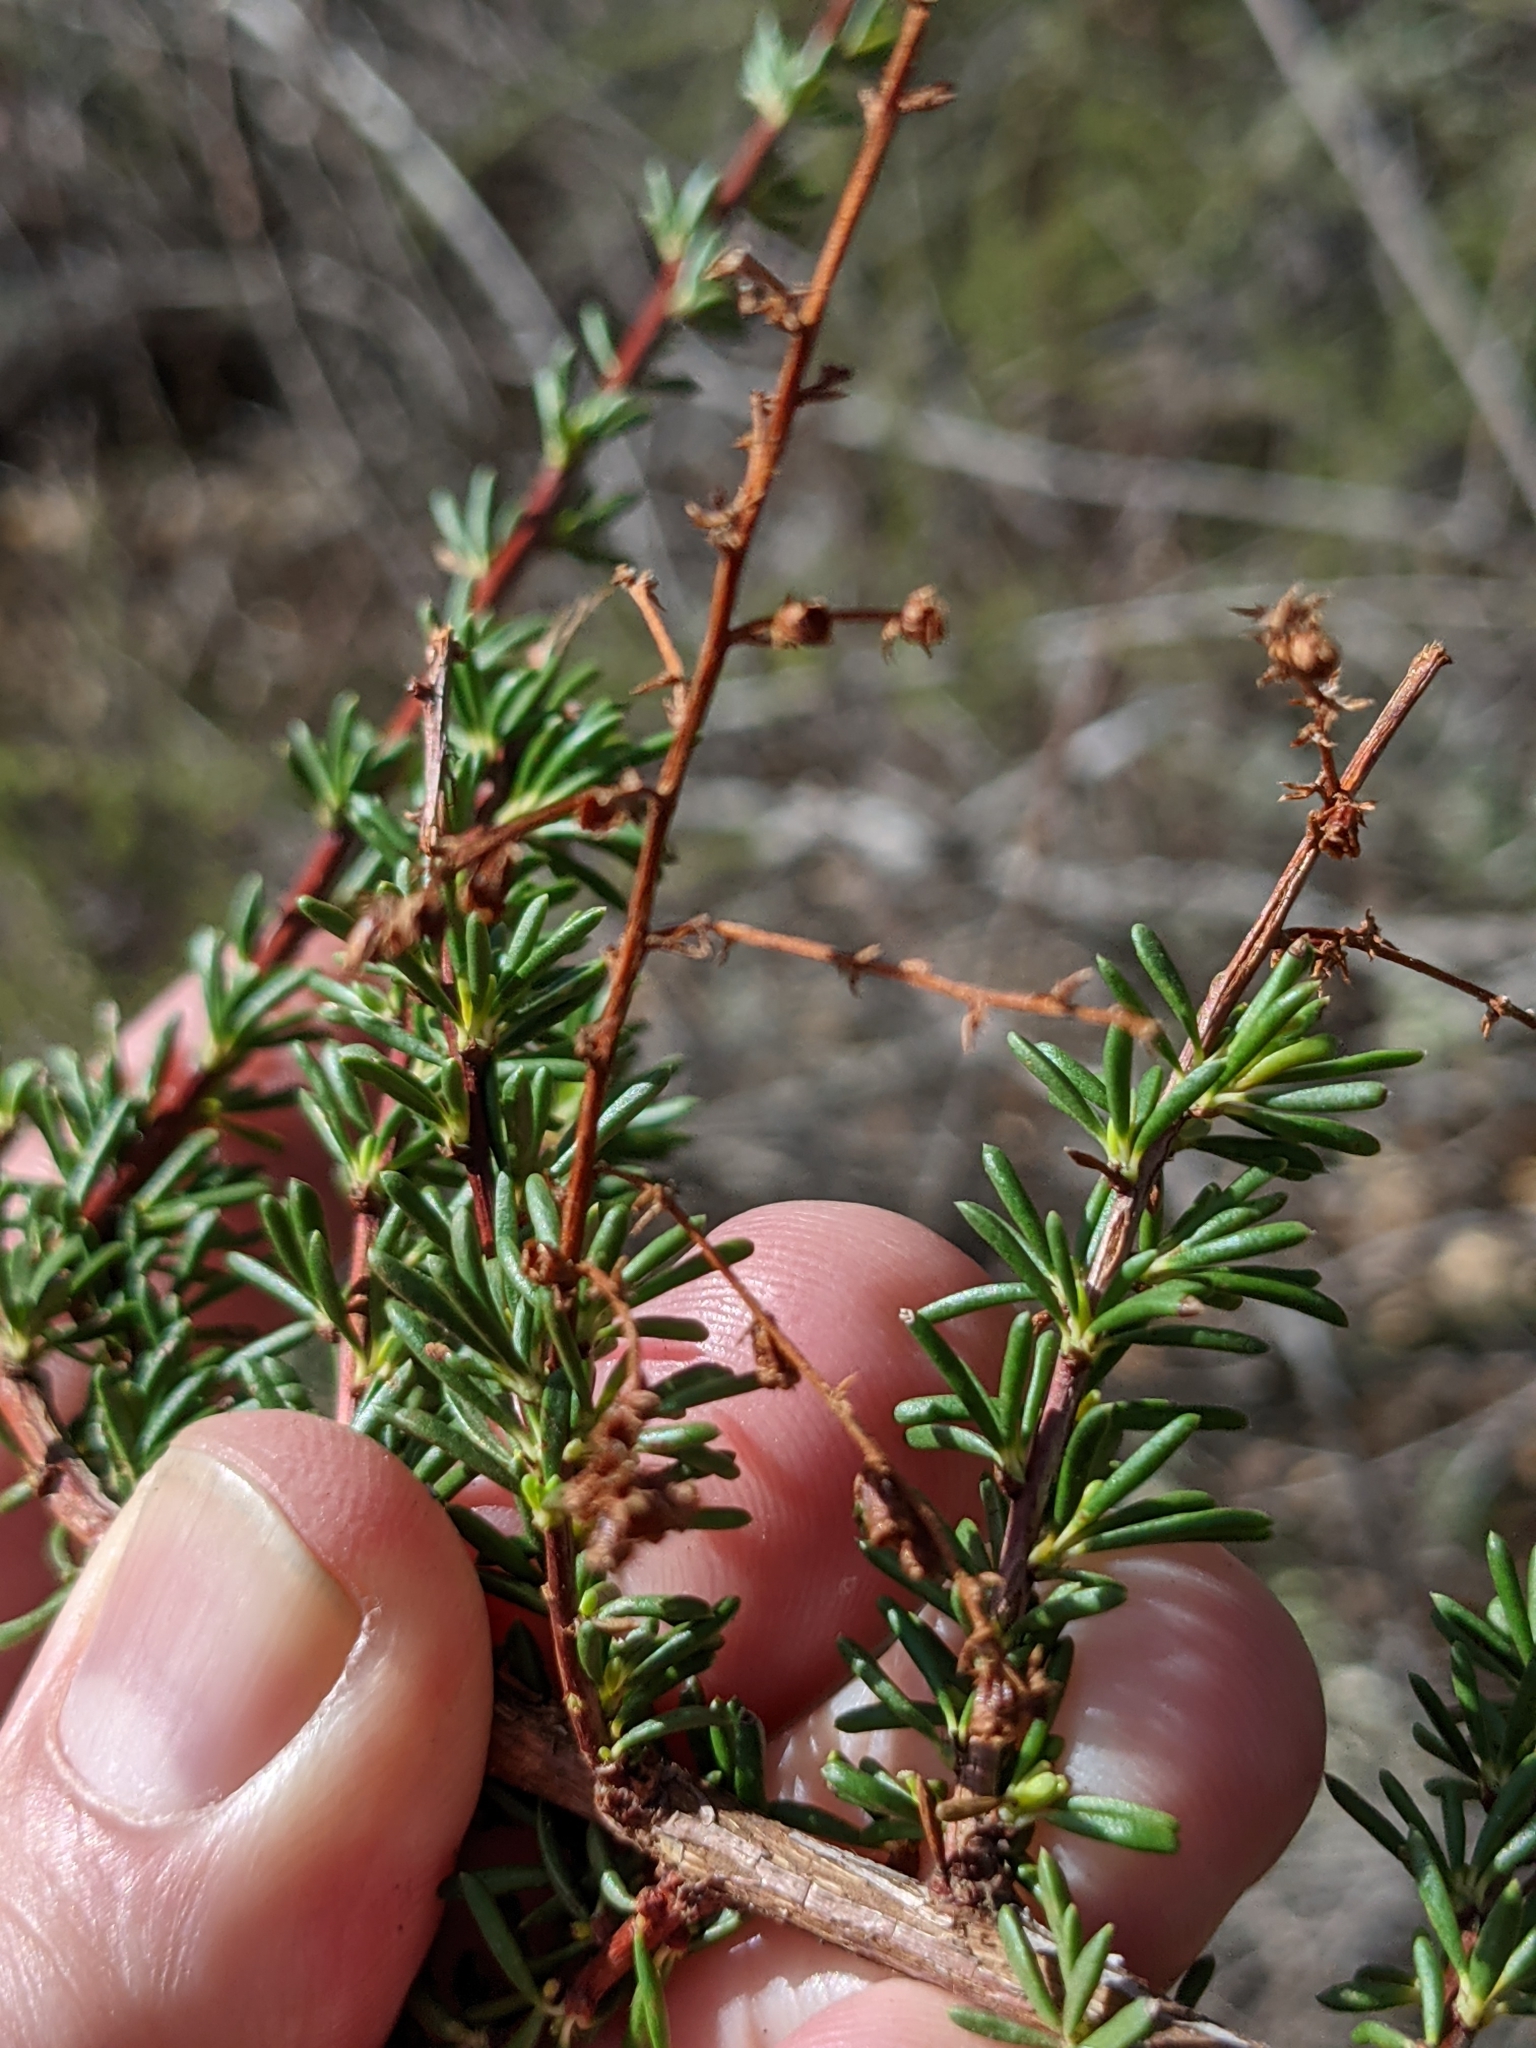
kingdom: Plantae
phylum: Tracheophyta
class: Magnoliopsida
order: Rosales
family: Rosaceae
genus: Adenostoma
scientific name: Adenostoma fasciculatum
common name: Chamise
